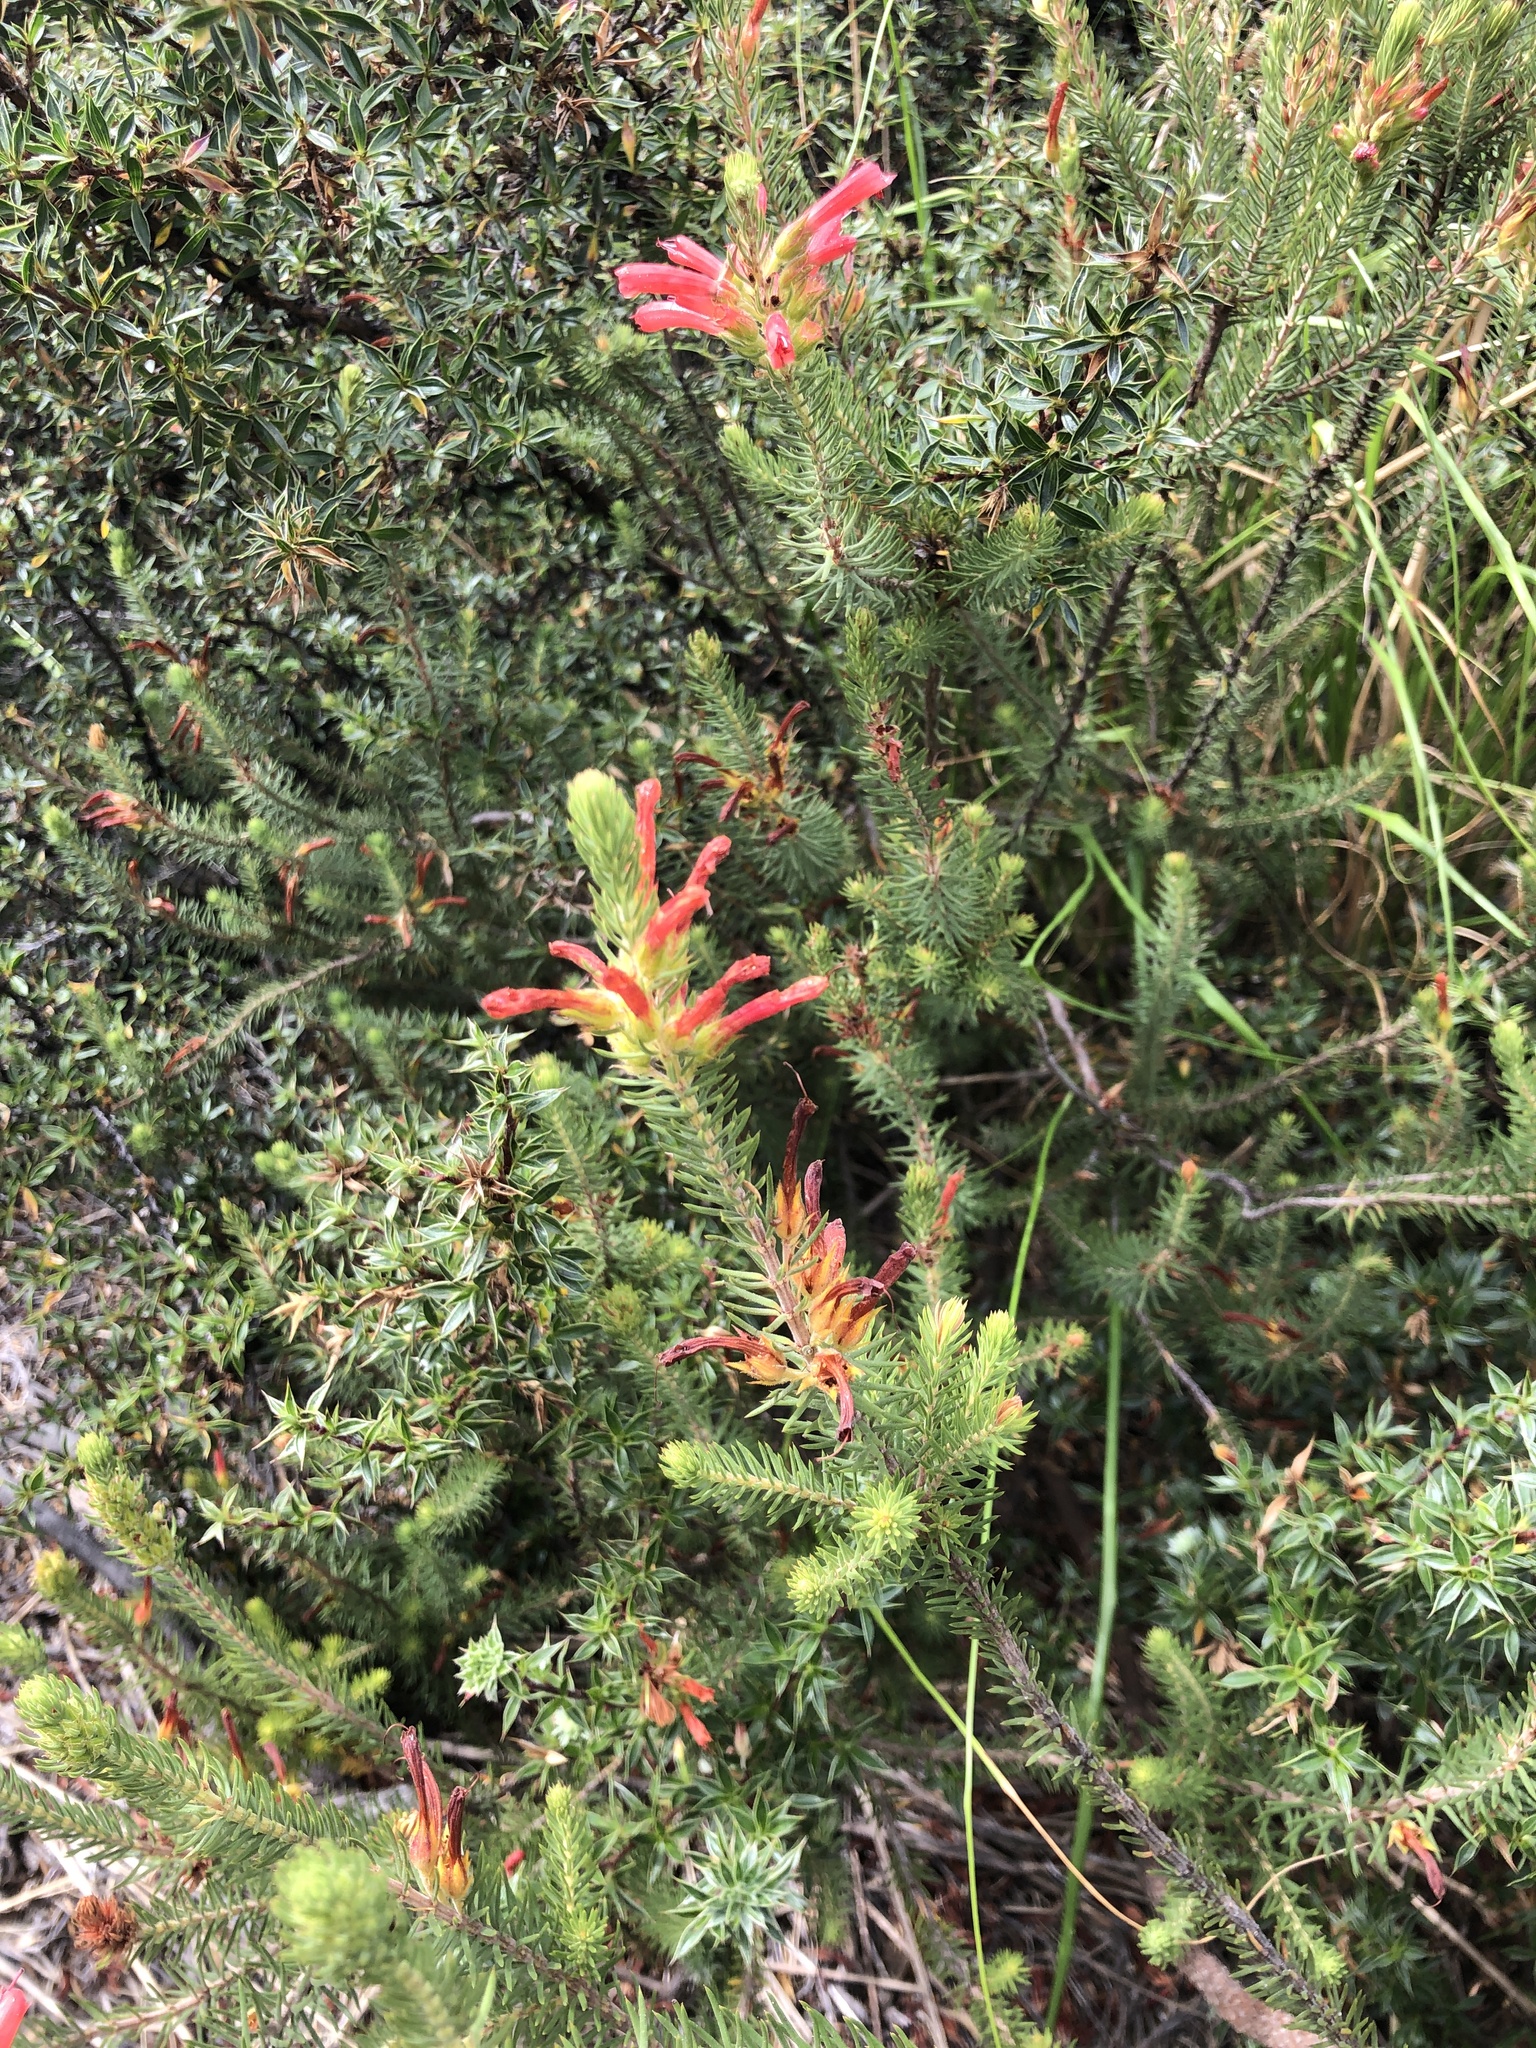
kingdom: Plantae
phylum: Tracheophyta
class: Magnoliopsida
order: Ericales
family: Ericaceae
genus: Erica
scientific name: Erica abietina
